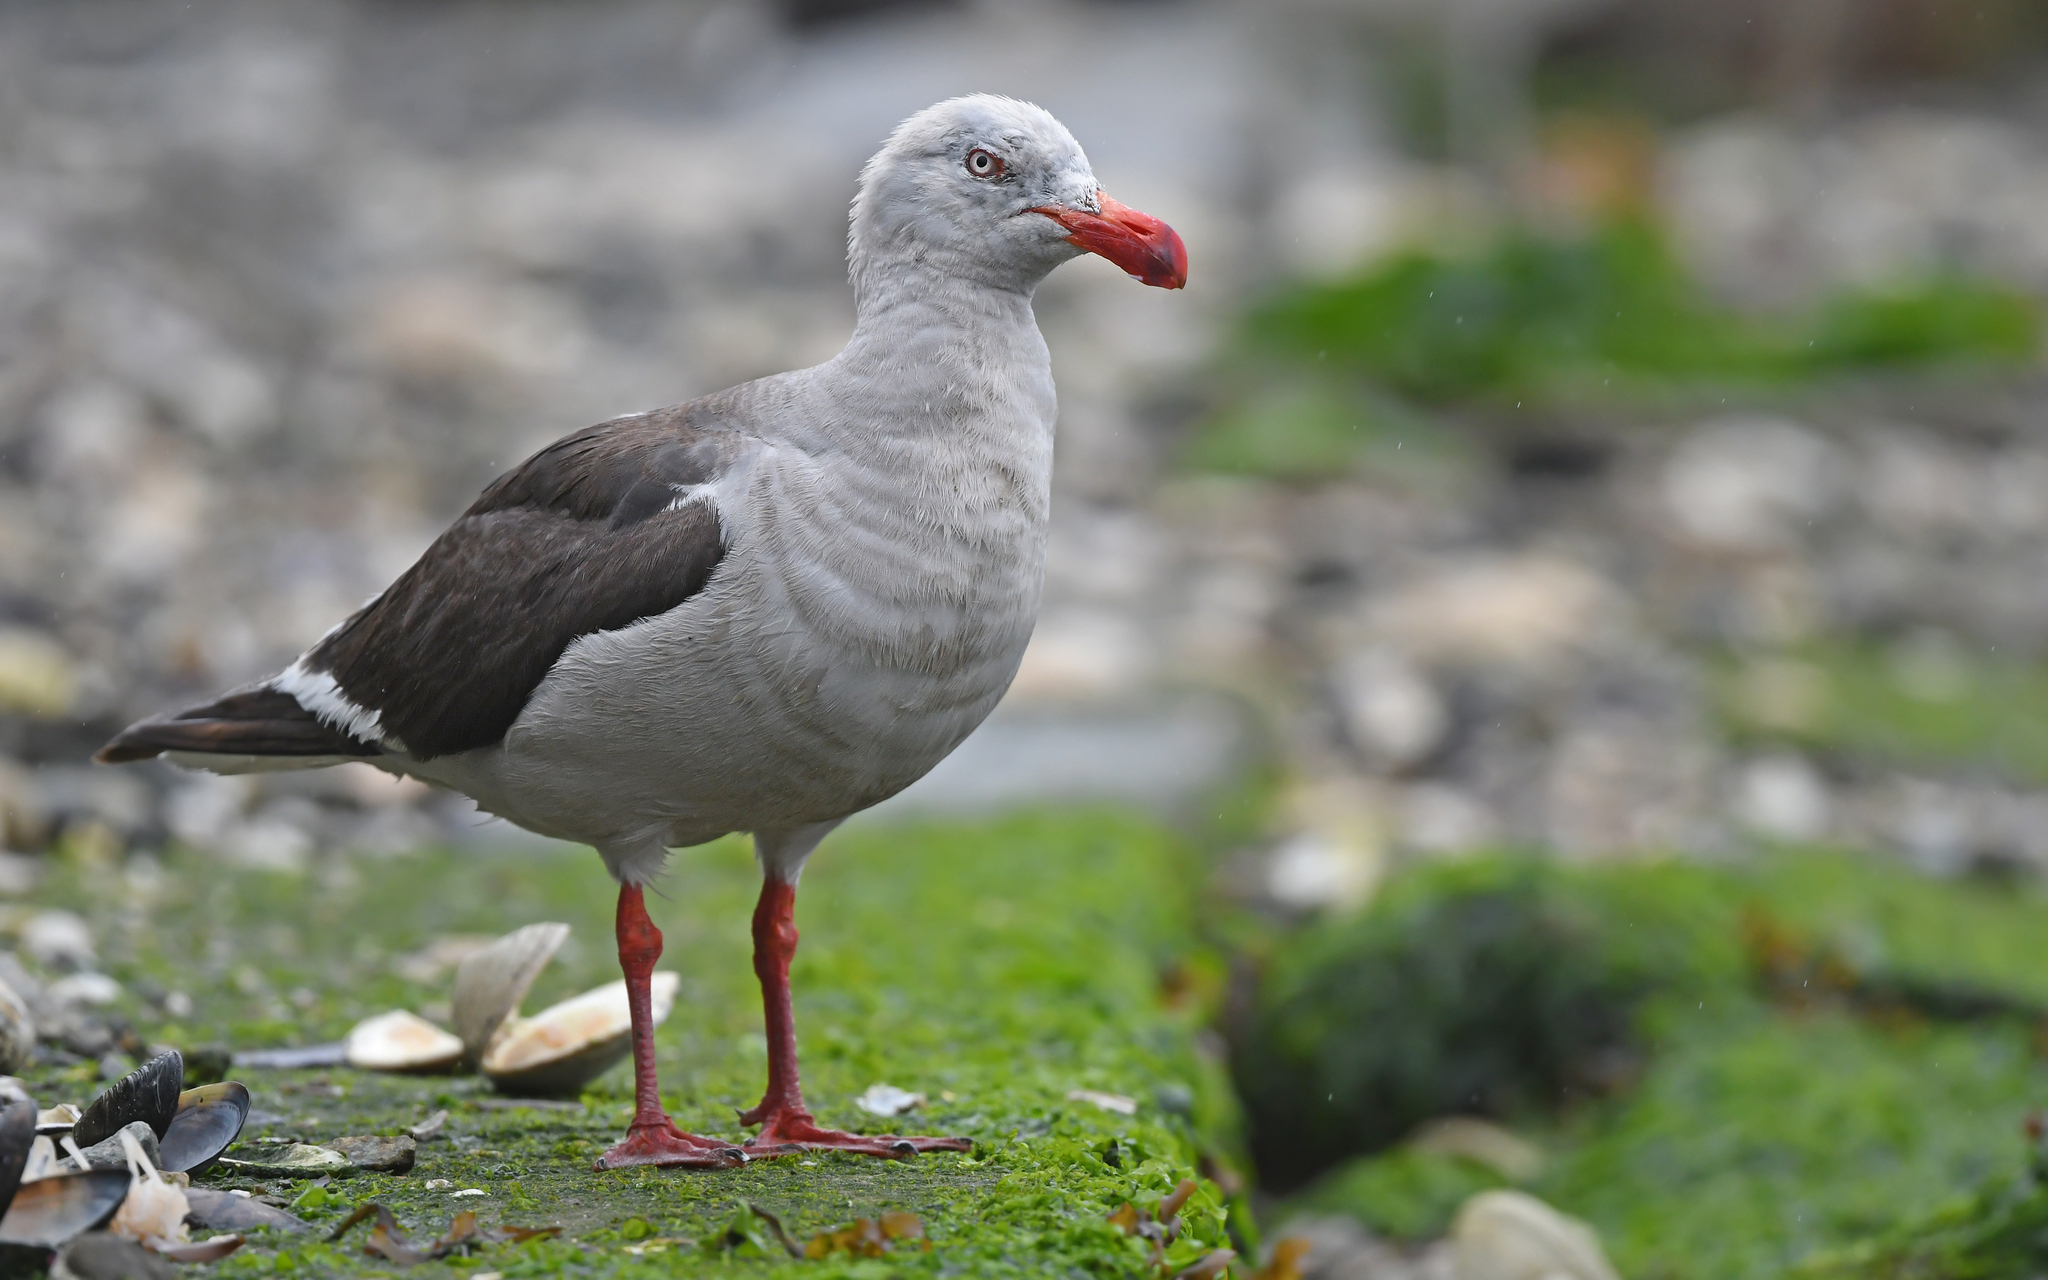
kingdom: Animalia
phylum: Chordata
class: Aves
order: Charadriiformes
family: Laridae
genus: Leucophaeus
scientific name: Leucophaeus scoresbii
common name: Dolphin gull
